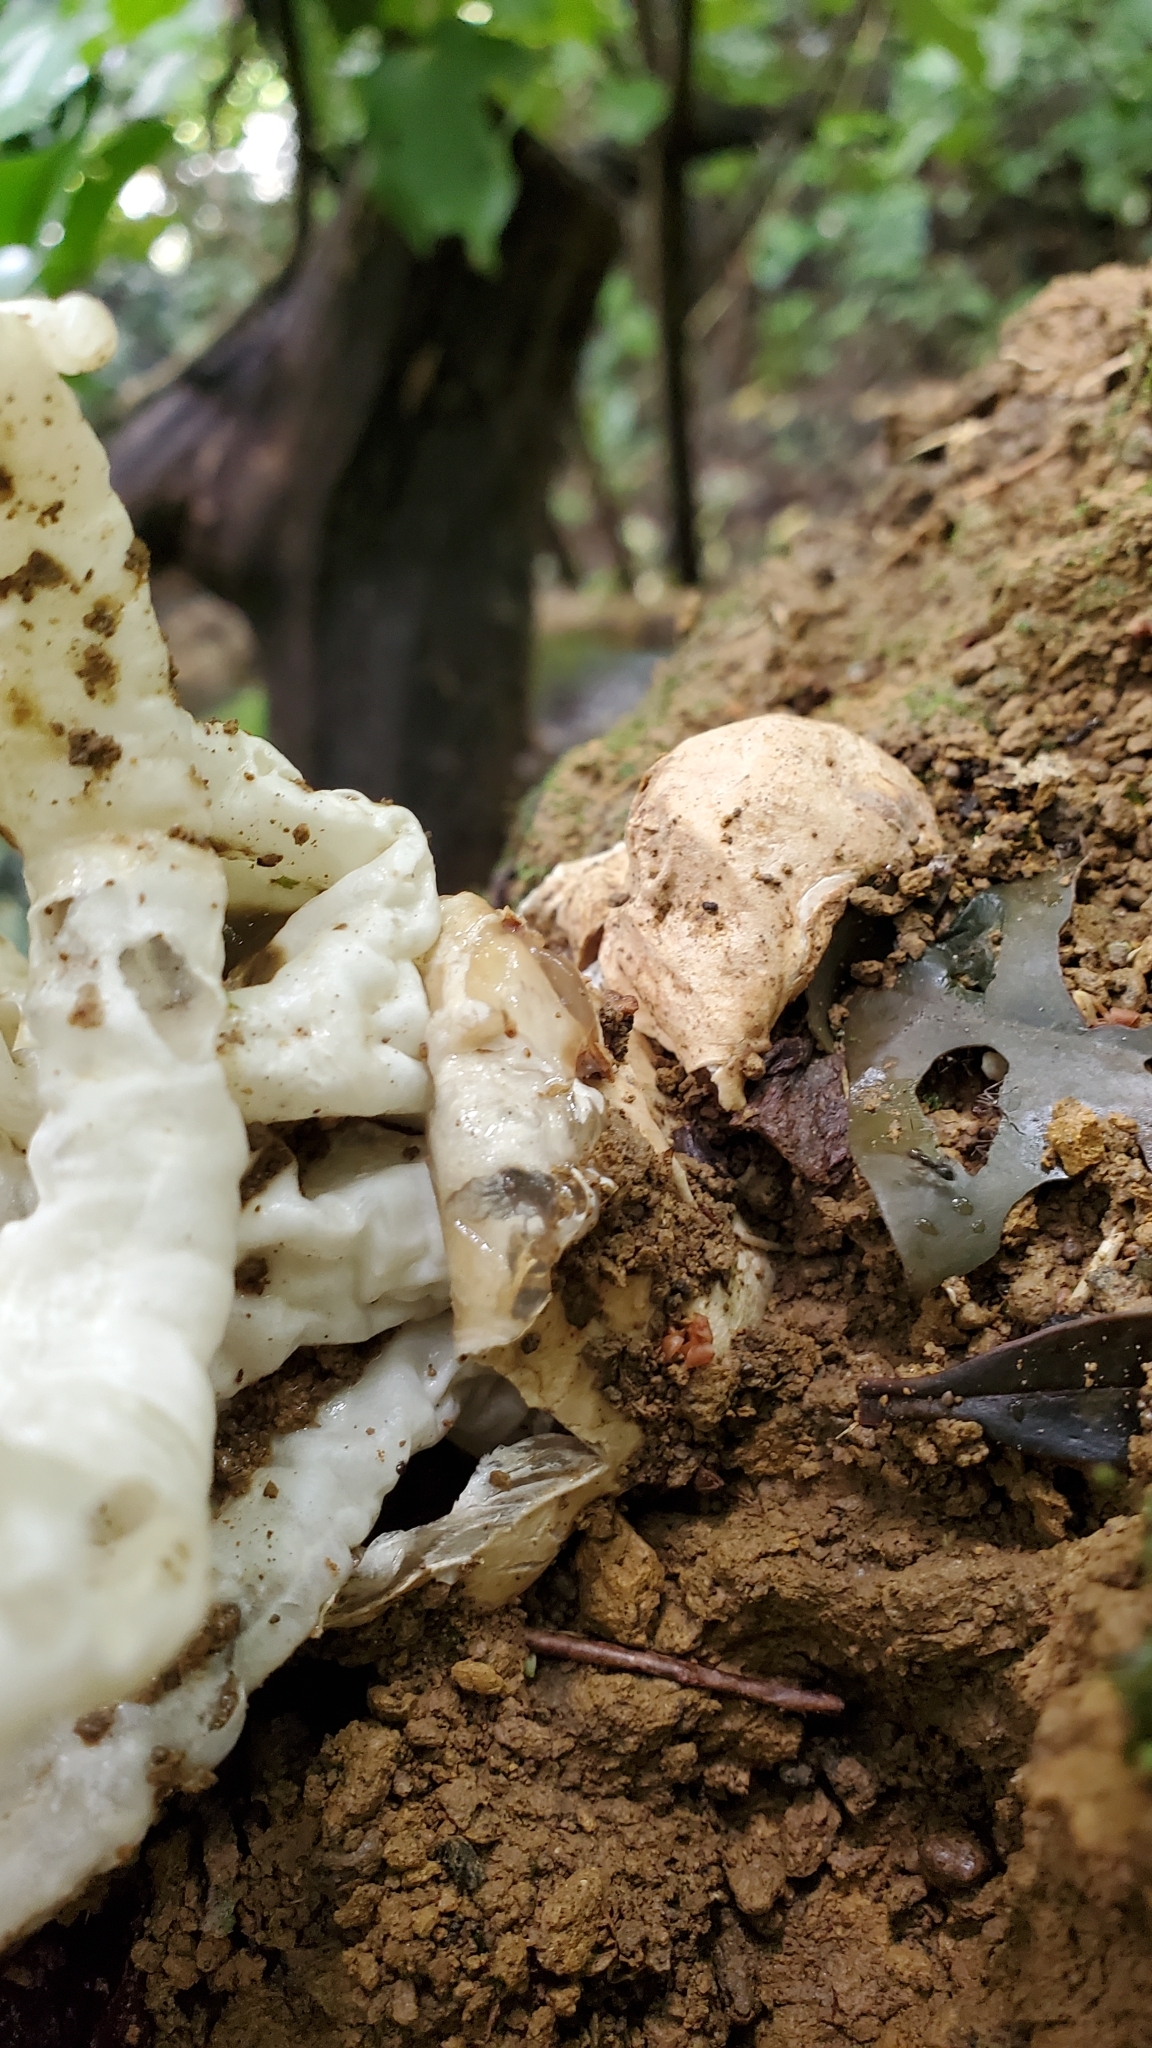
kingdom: Fungi
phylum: Basidiomycota
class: Agaricomycetes
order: Phallales
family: Phallaceae
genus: Ileodictyon
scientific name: Ileodictyon cibarium
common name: Basket fungus
